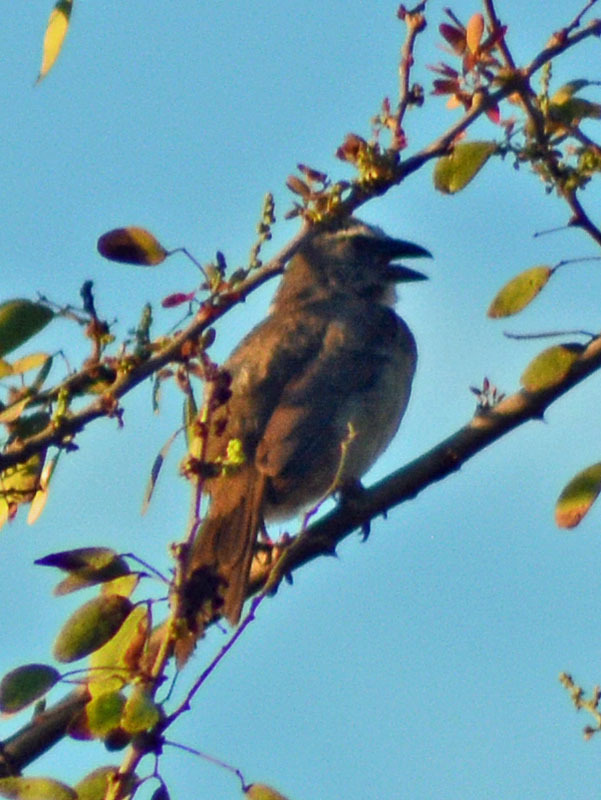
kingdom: Animalia
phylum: Chordata
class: Aves
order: Passeriformes
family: Thraupidae
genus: Saltator
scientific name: Saltator grandis
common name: Cinnamon-bellied saltator
